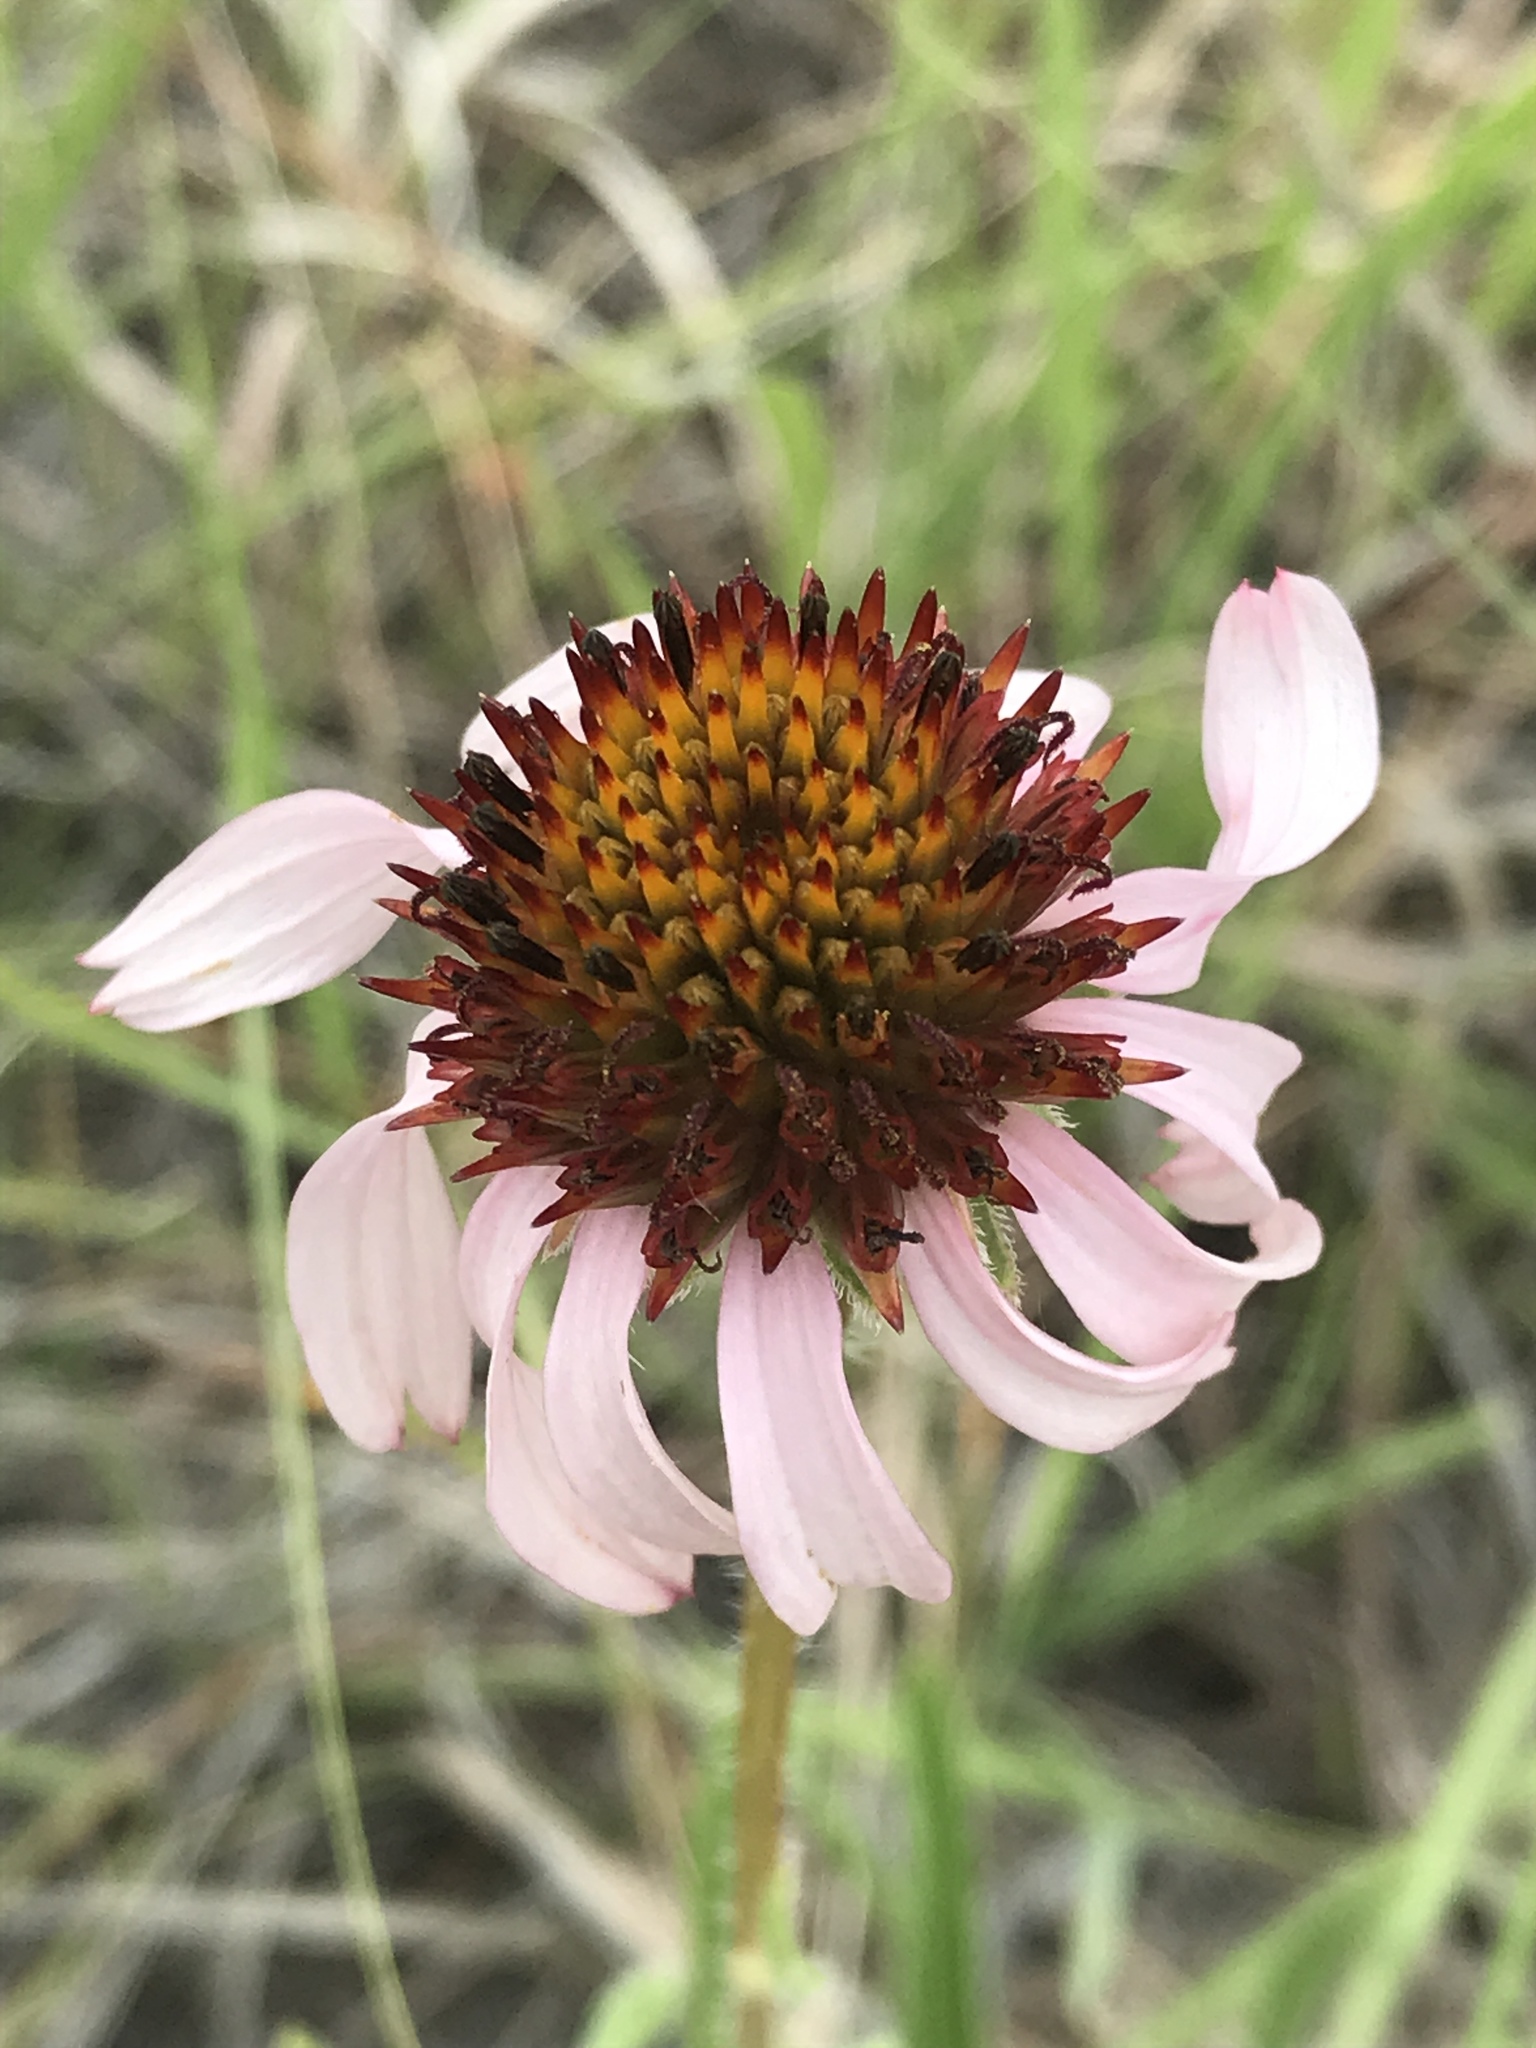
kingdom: Plantae
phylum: Tracheophyta
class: Magnoliopsida
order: Asterales
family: Asteraceae
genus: Echinacea
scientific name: Echinacea angustifolia
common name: Black-sampson echinacea
